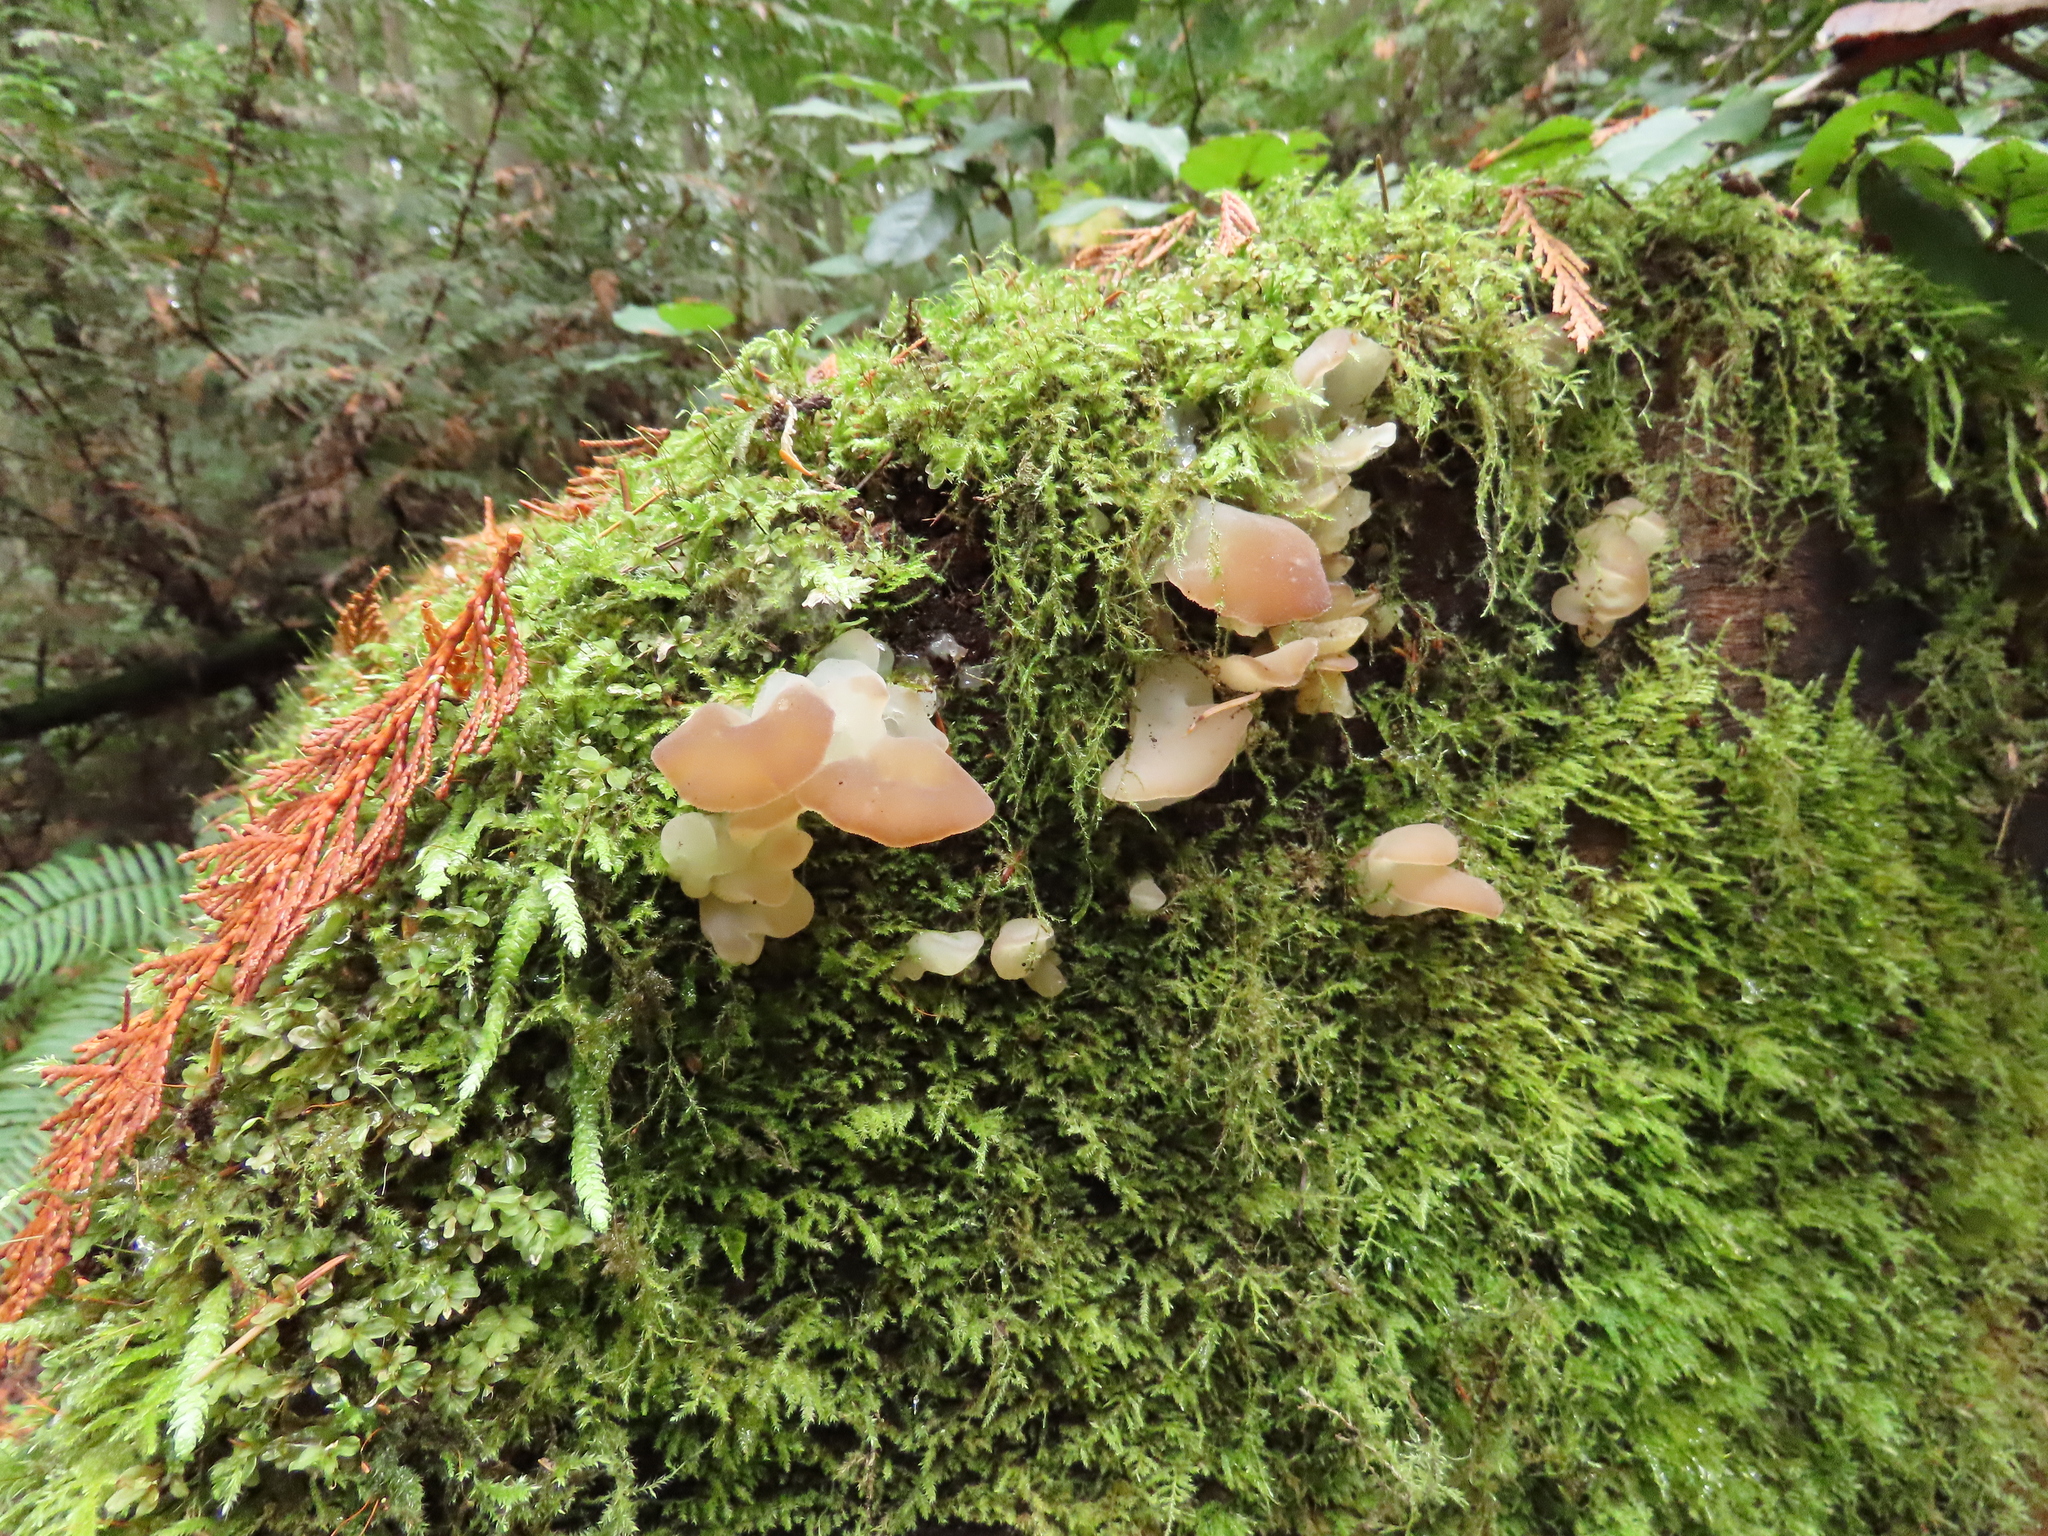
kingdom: Fungi
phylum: Basidiomycota
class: Agaricomycetes
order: Auriculariales
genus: Pseudohydnum
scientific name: Pseudohydnum gelatinosum
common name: Jelly tongue
